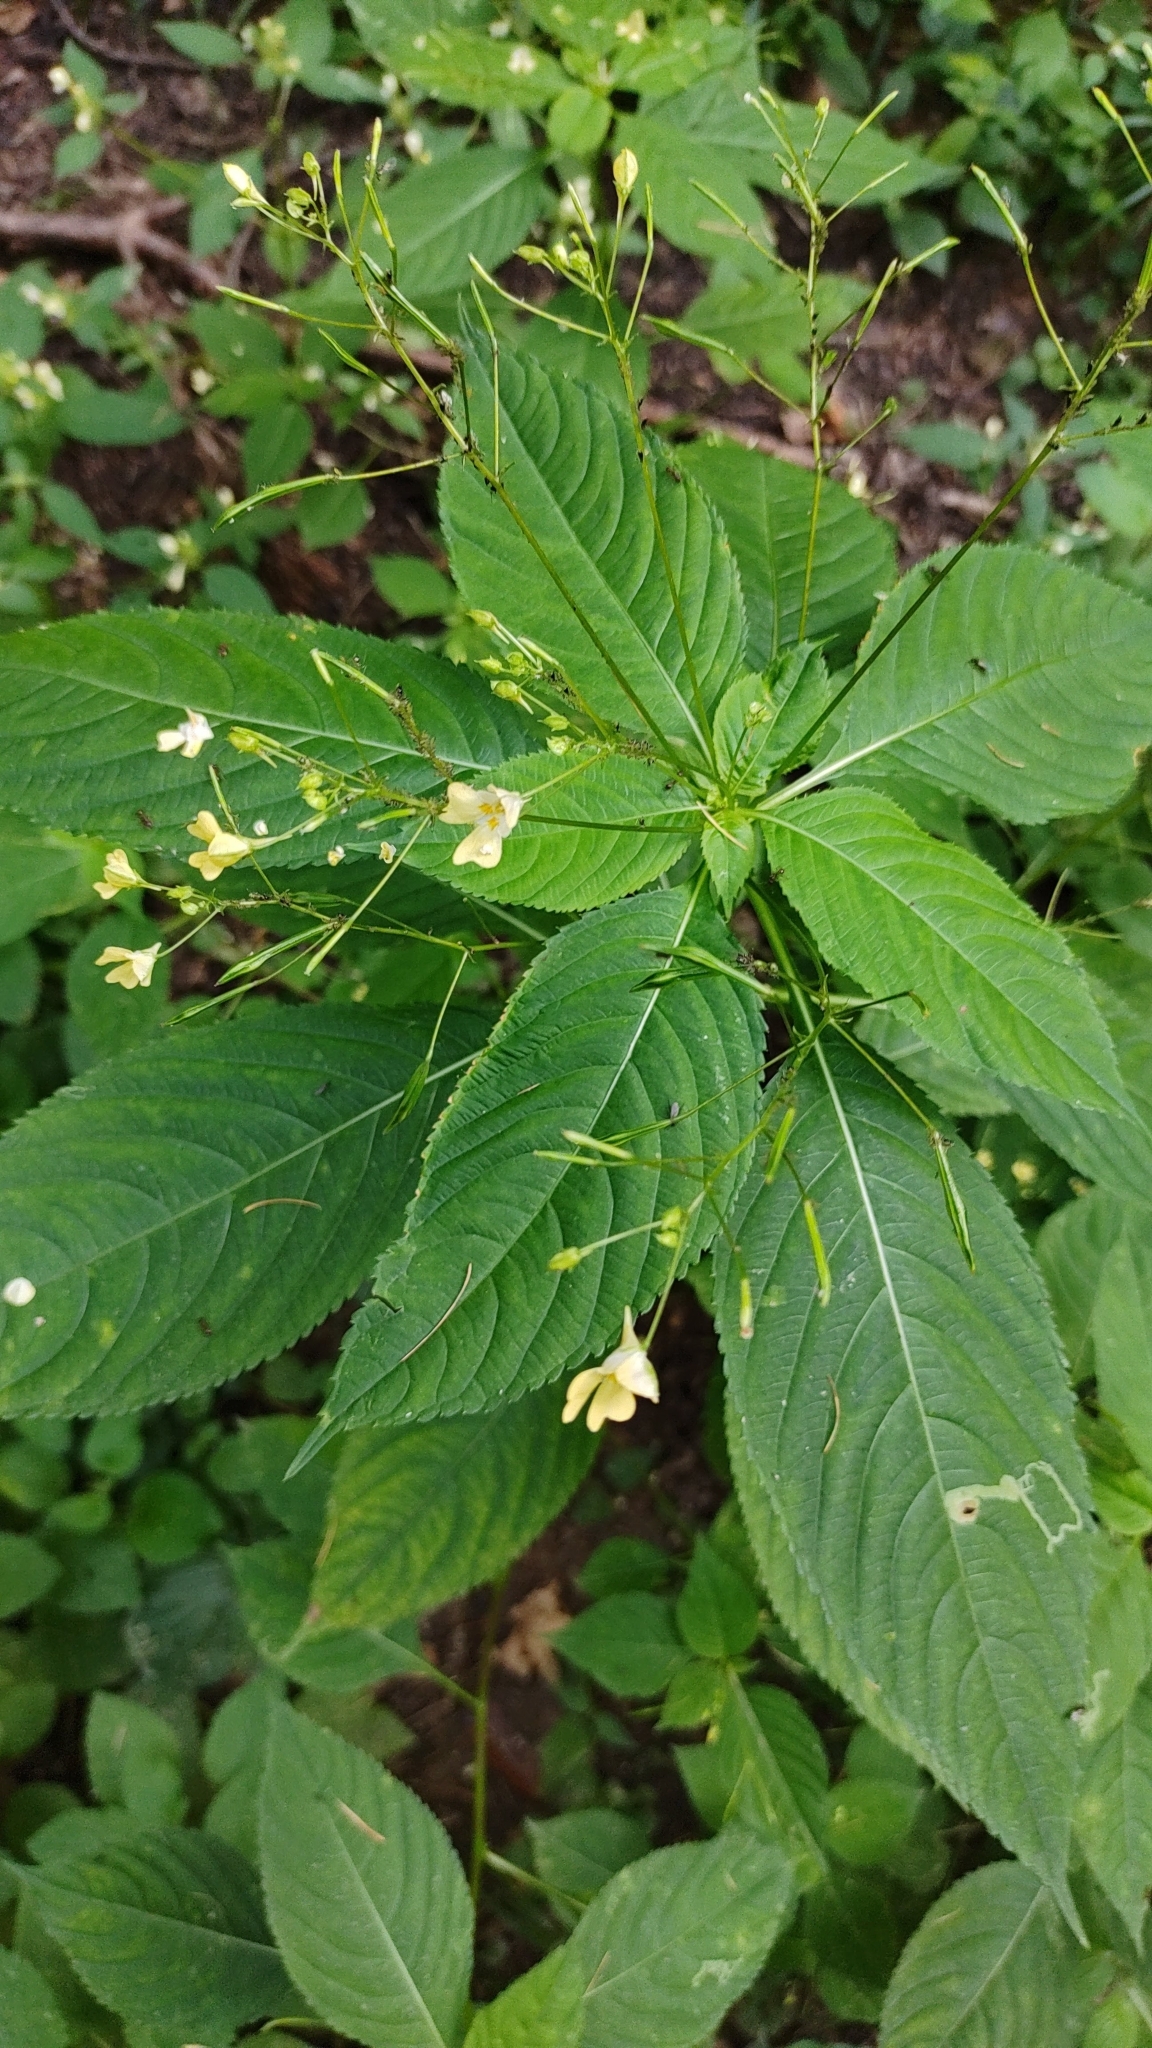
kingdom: Plantae
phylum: Tracheophyta
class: Magnoliopsida
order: Ericales
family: Balsaminaceae
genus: Impatiens
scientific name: Impatiens parviflora
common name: Small balsam
